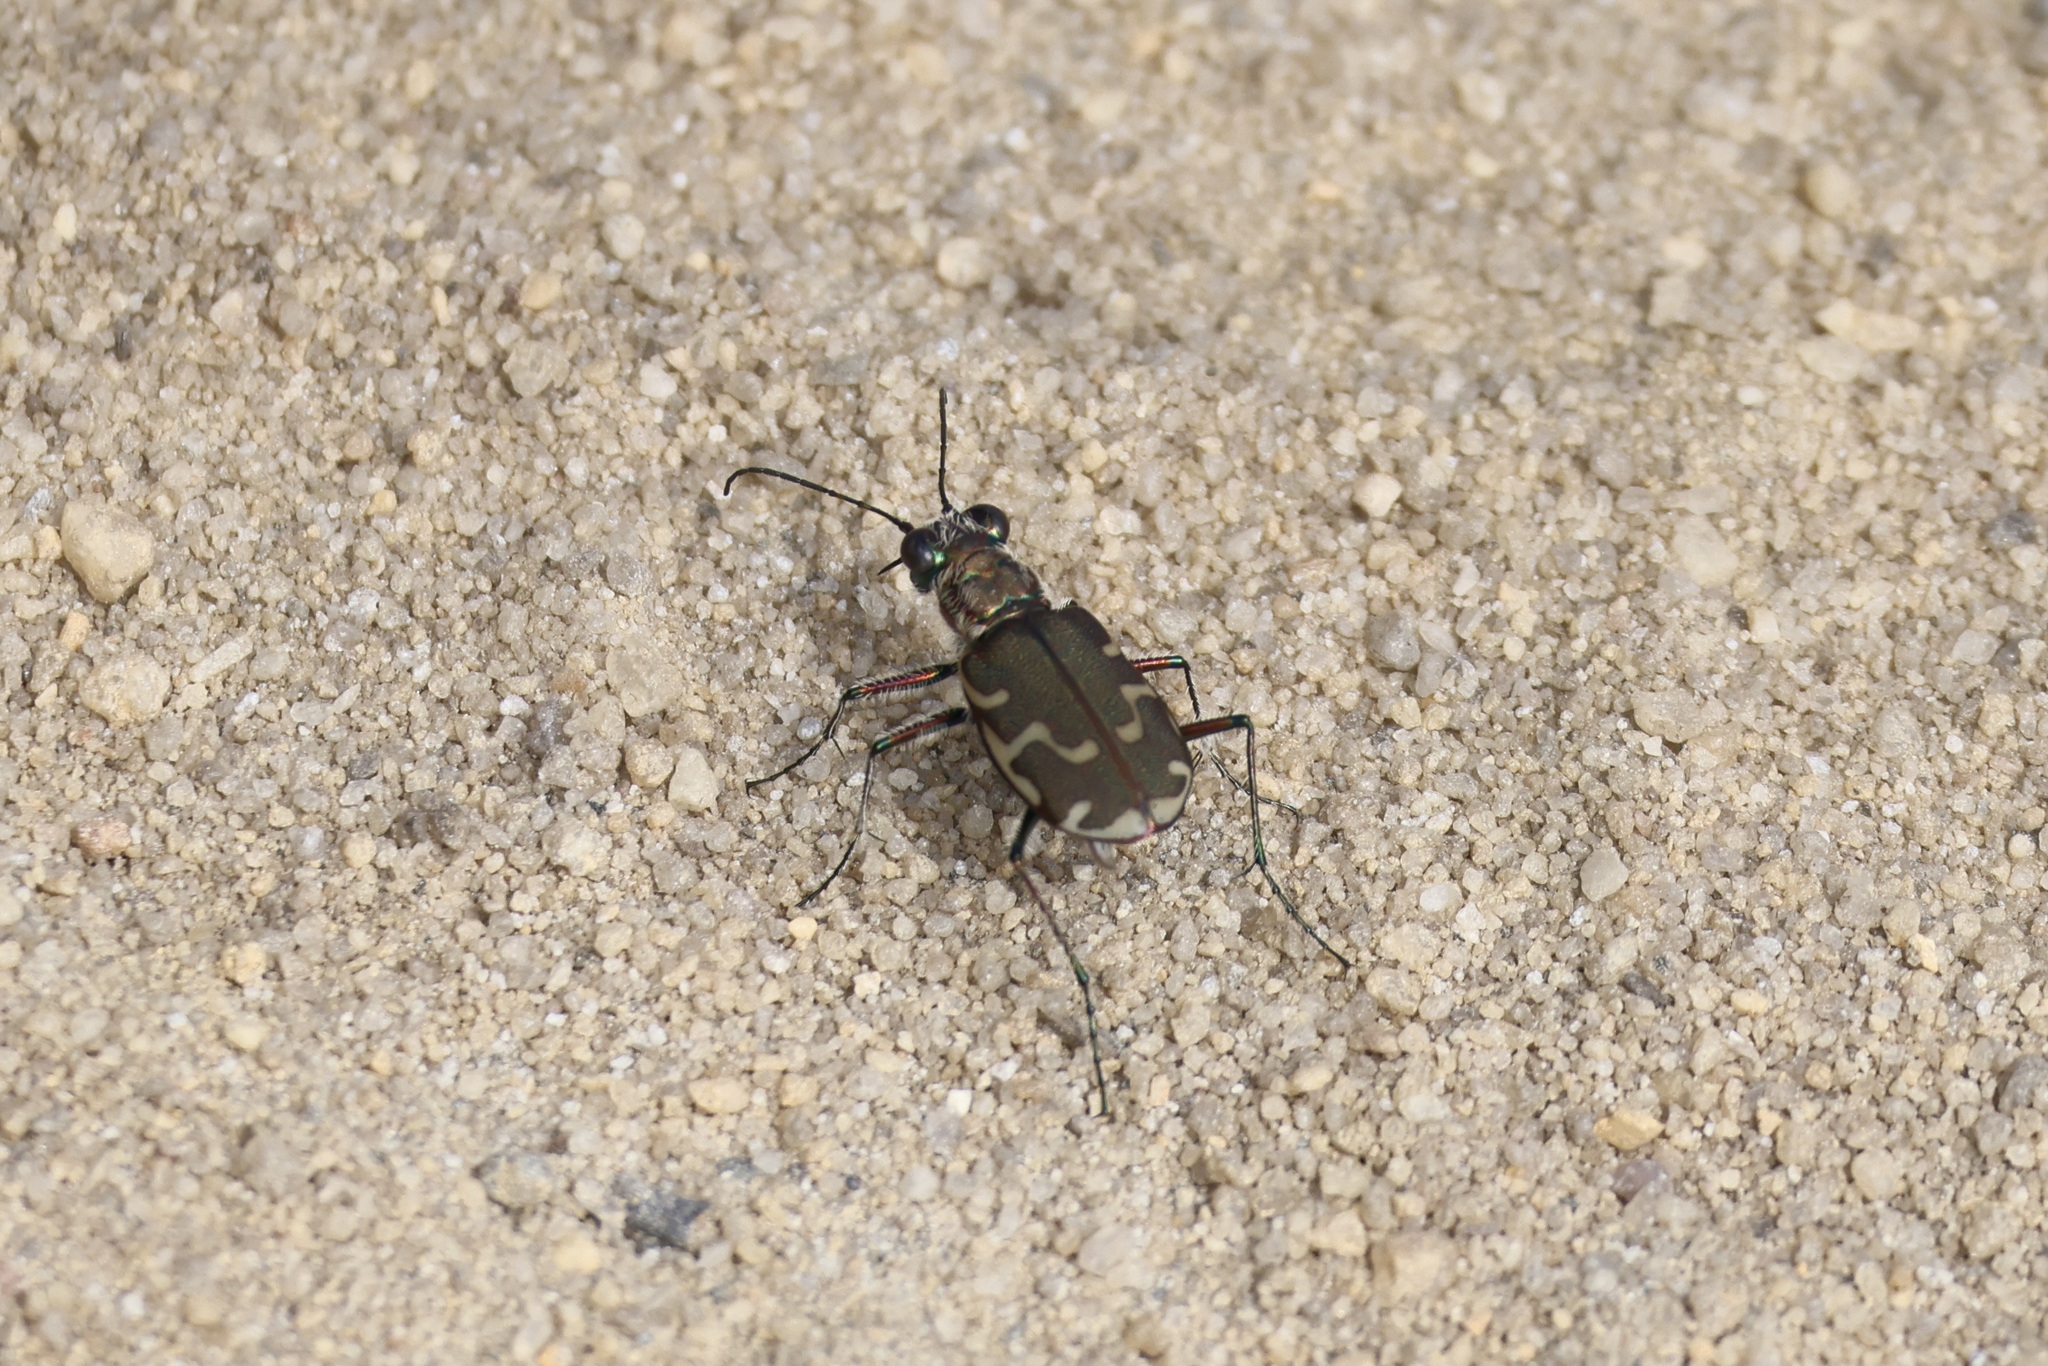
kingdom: Animalia
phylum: Arthropoda
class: Insecta
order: Coleoptera
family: Carabidae
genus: Cicindela
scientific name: Cicindela repanda
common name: Bronzed tiger beetle
